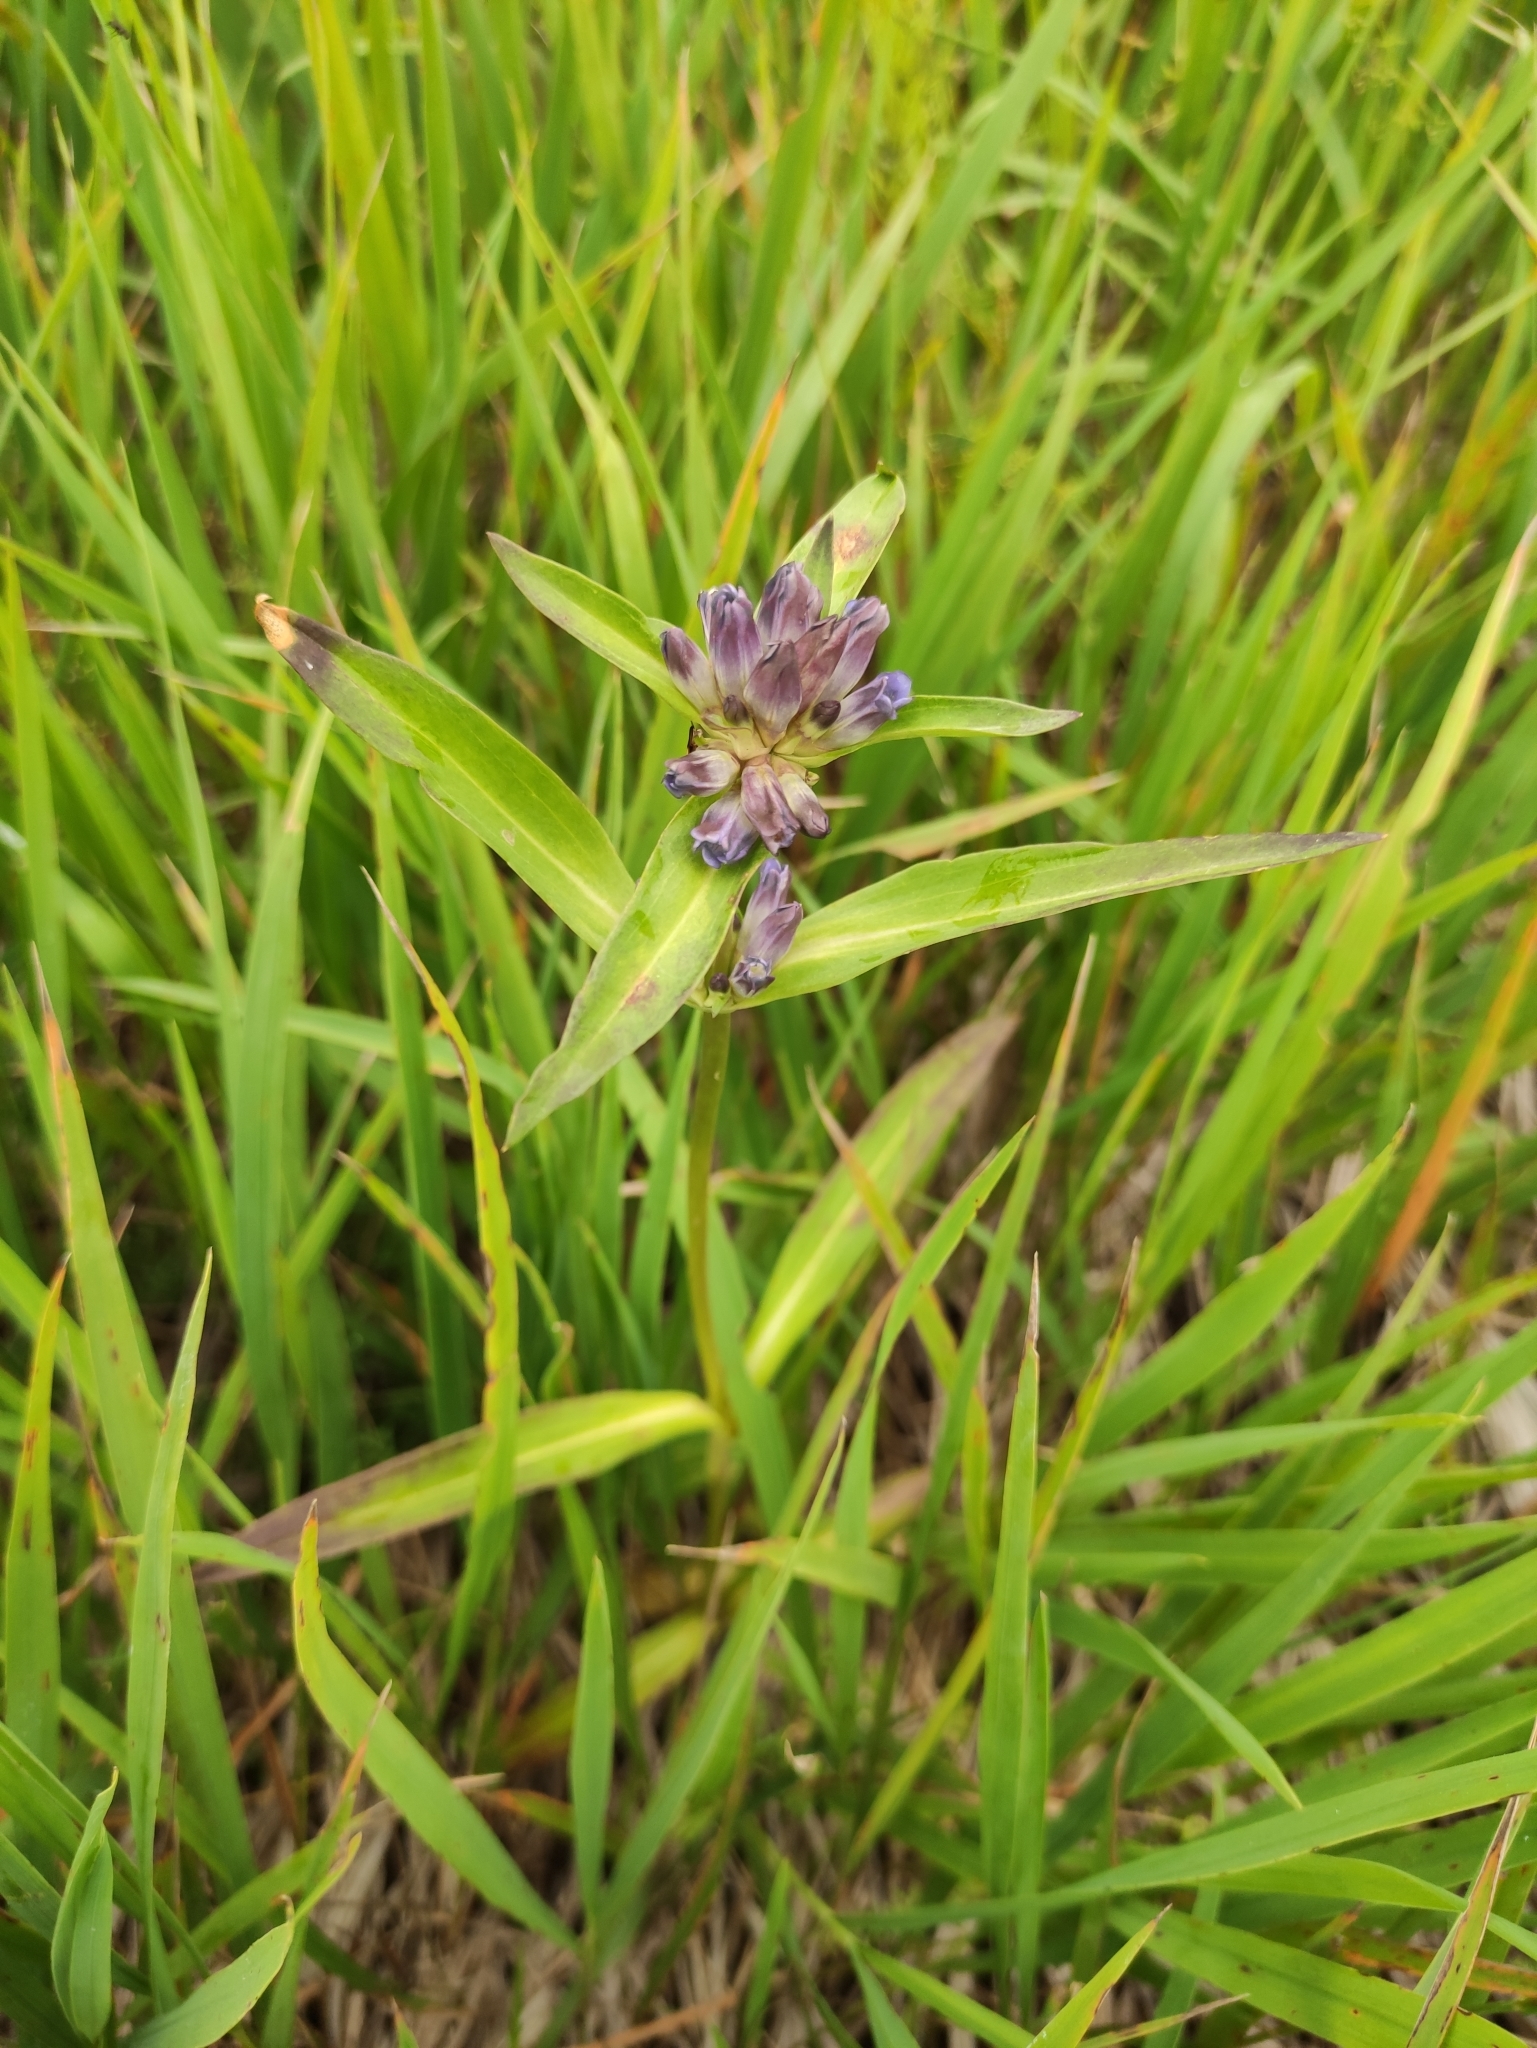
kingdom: Plantae
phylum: Tracheophyta
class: Magnoliopsida
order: Gentianales
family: Gentianaceae
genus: Gentiana
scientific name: Gentiana macrophylla
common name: Large-leaf gentian
